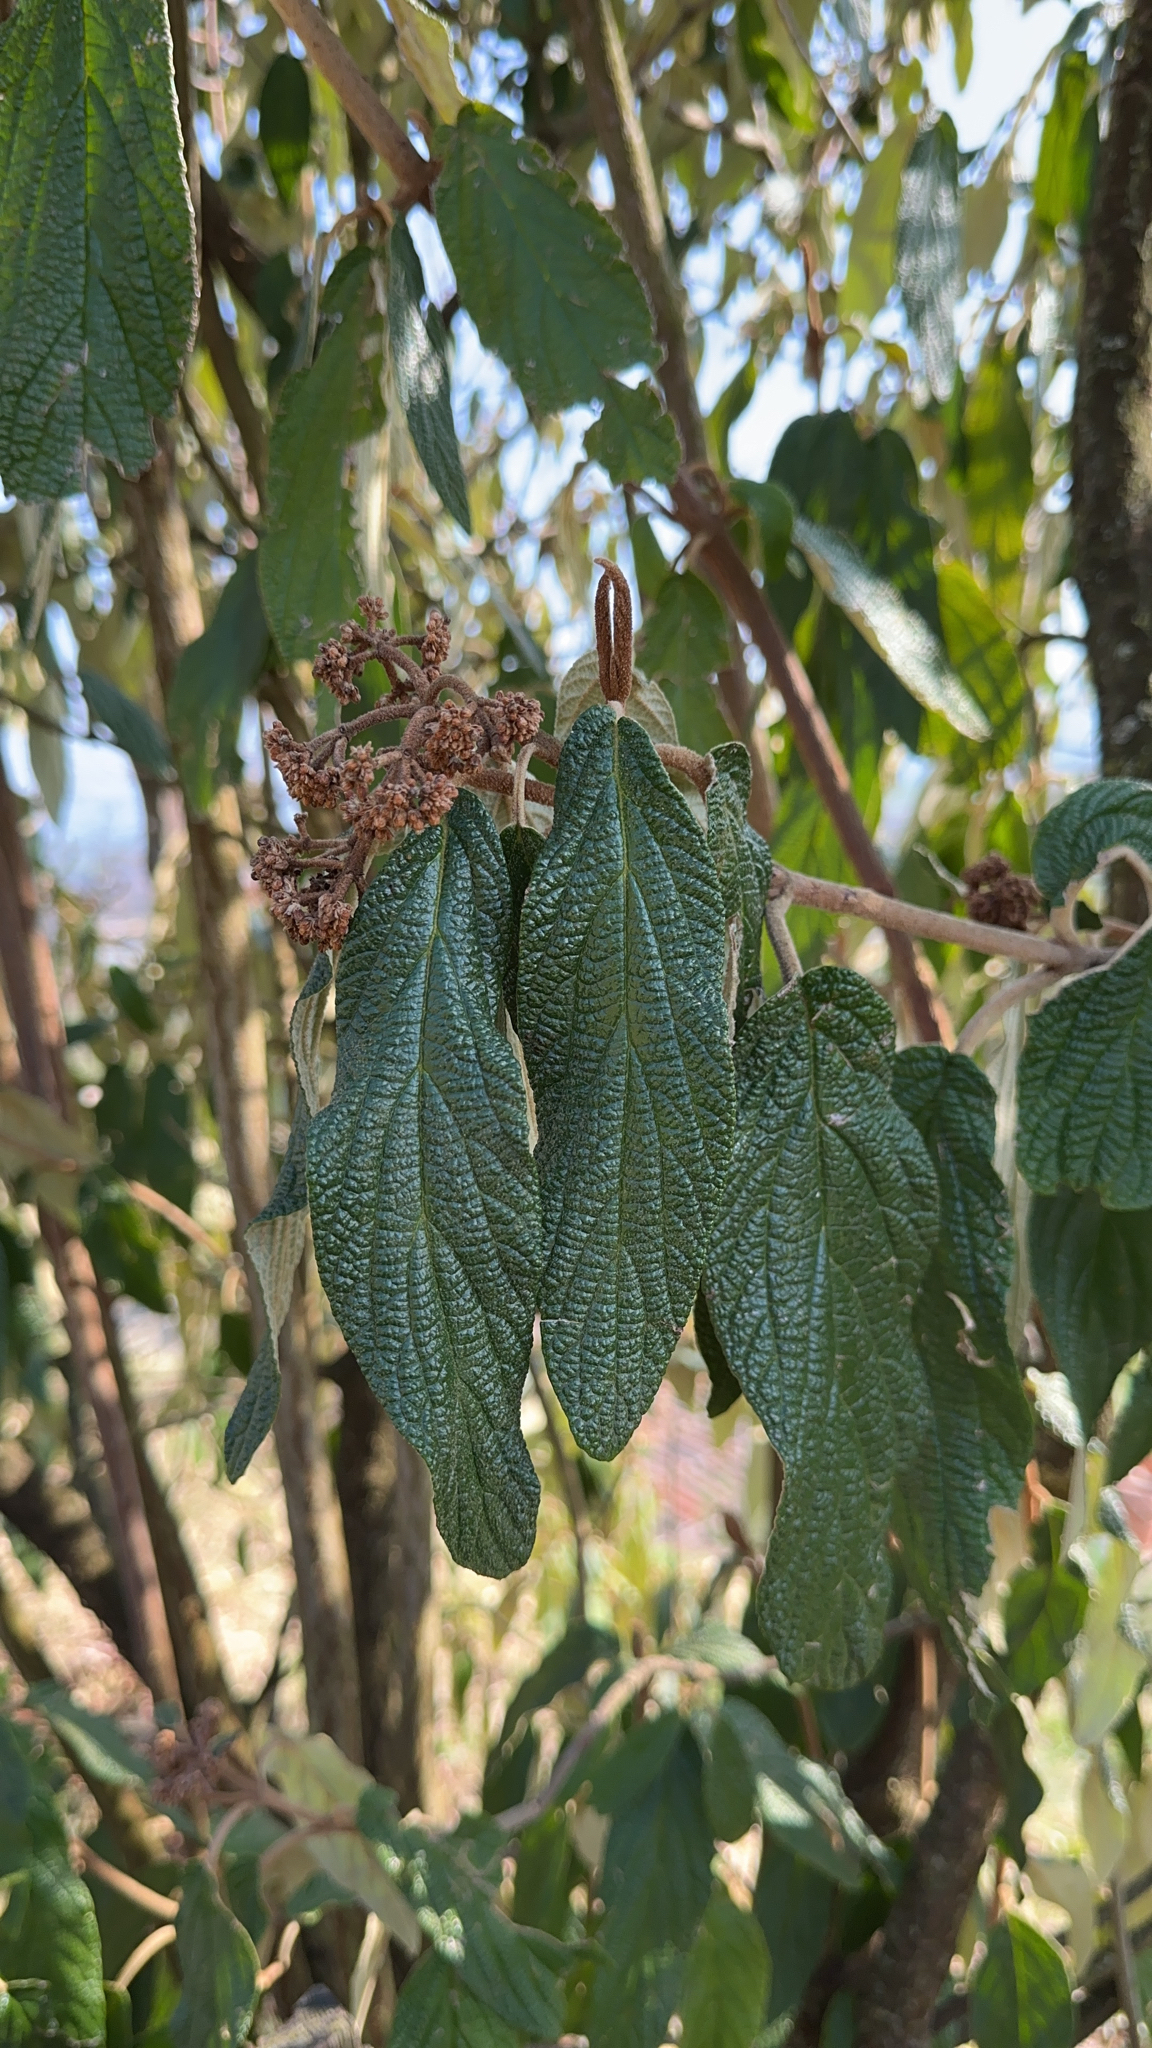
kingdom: Plantae
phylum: Tracheophyta
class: Magnoliopsida
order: Dipsacales
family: Viburnaceae
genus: Viburnum
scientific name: Viburnum rhytidophyllum
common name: Wrinkled viburnum
